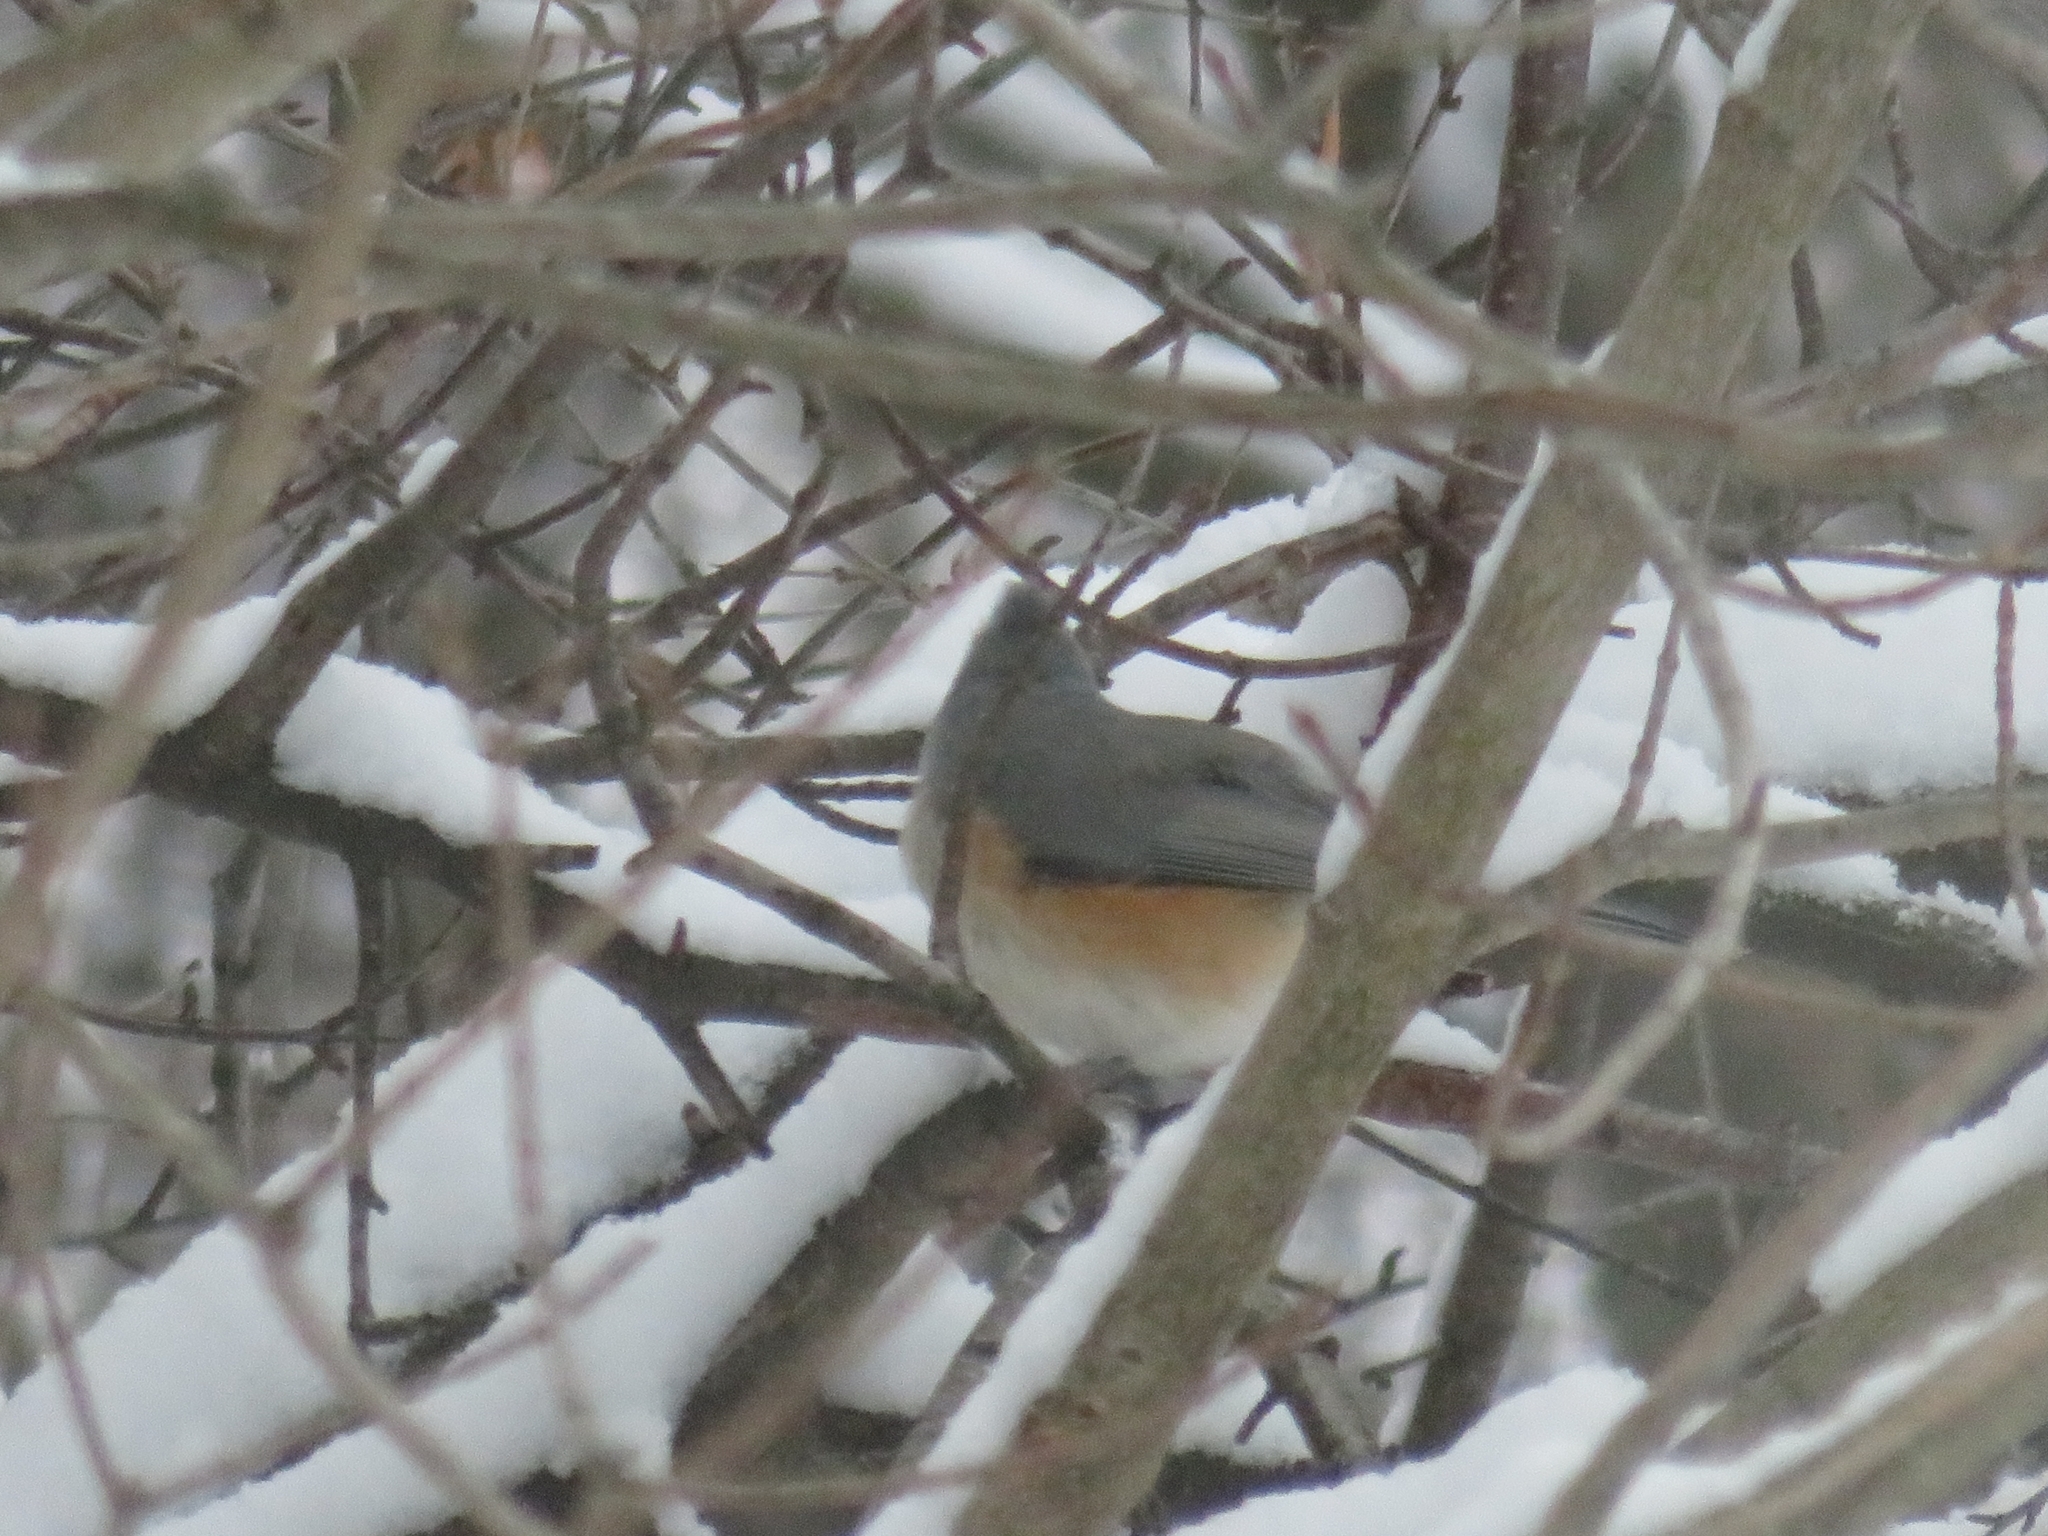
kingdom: Animalia
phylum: Chordata
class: Aves
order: Passeriformes
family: Paridae
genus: Baeolophus
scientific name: Baeolophus bicolor
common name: Tufted titmouse
